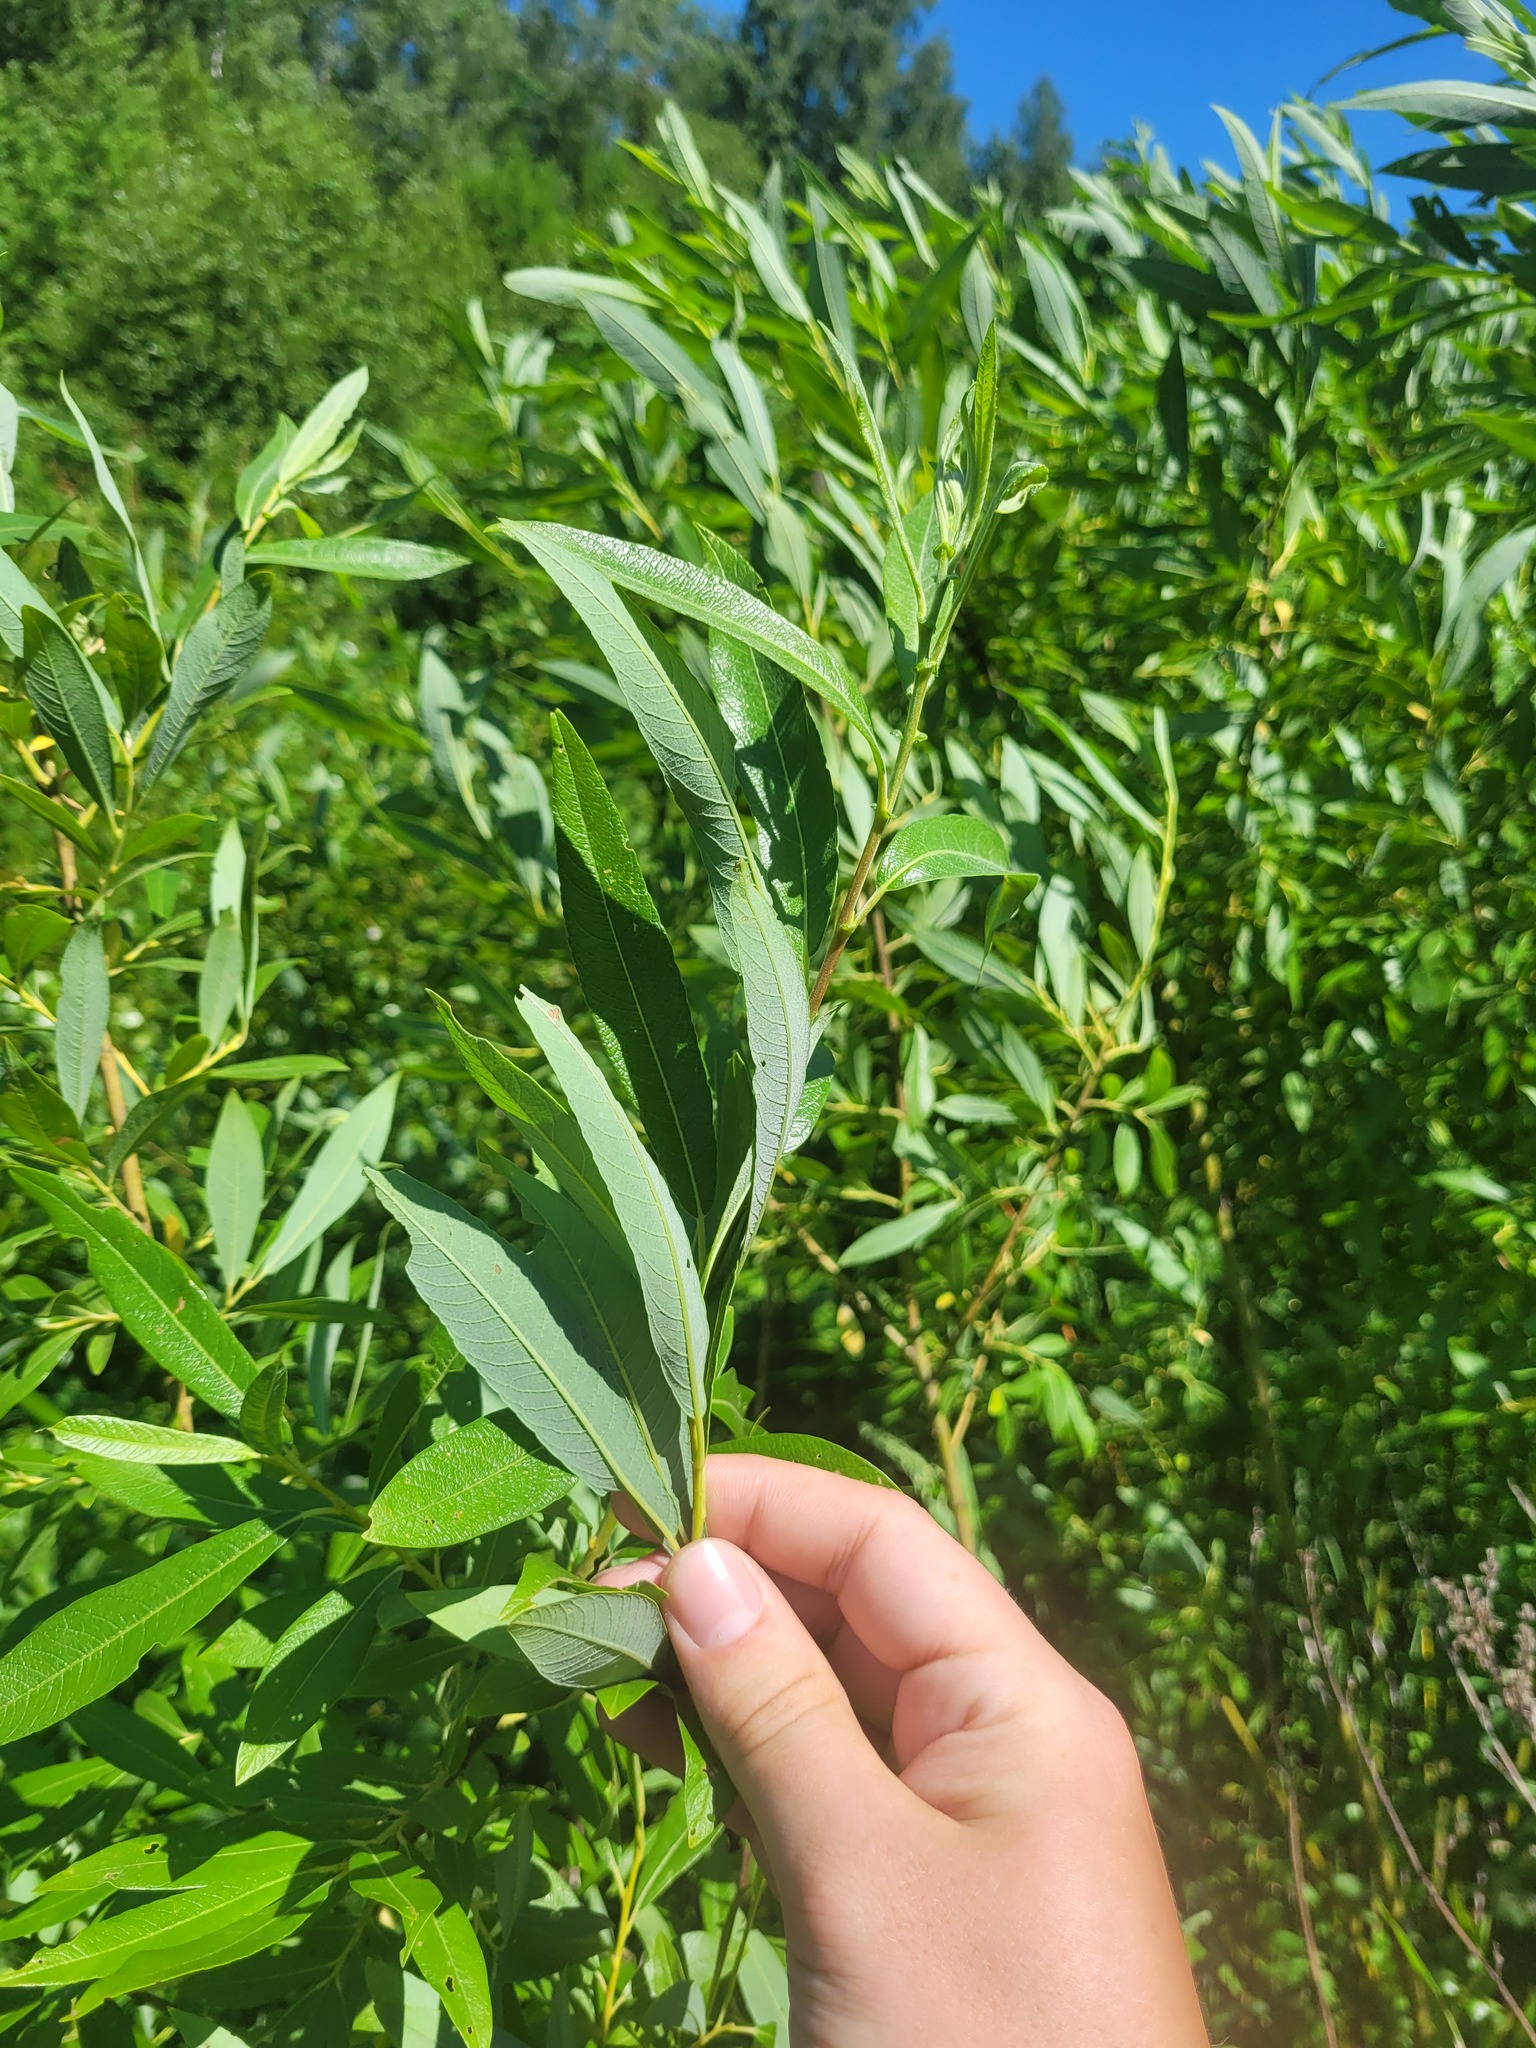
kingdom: Plantae
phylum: Tracheophyta
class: Magnoliopsida
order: Malpighiales
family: Salicaceae
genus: Salix
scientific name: Salix gmelinii
